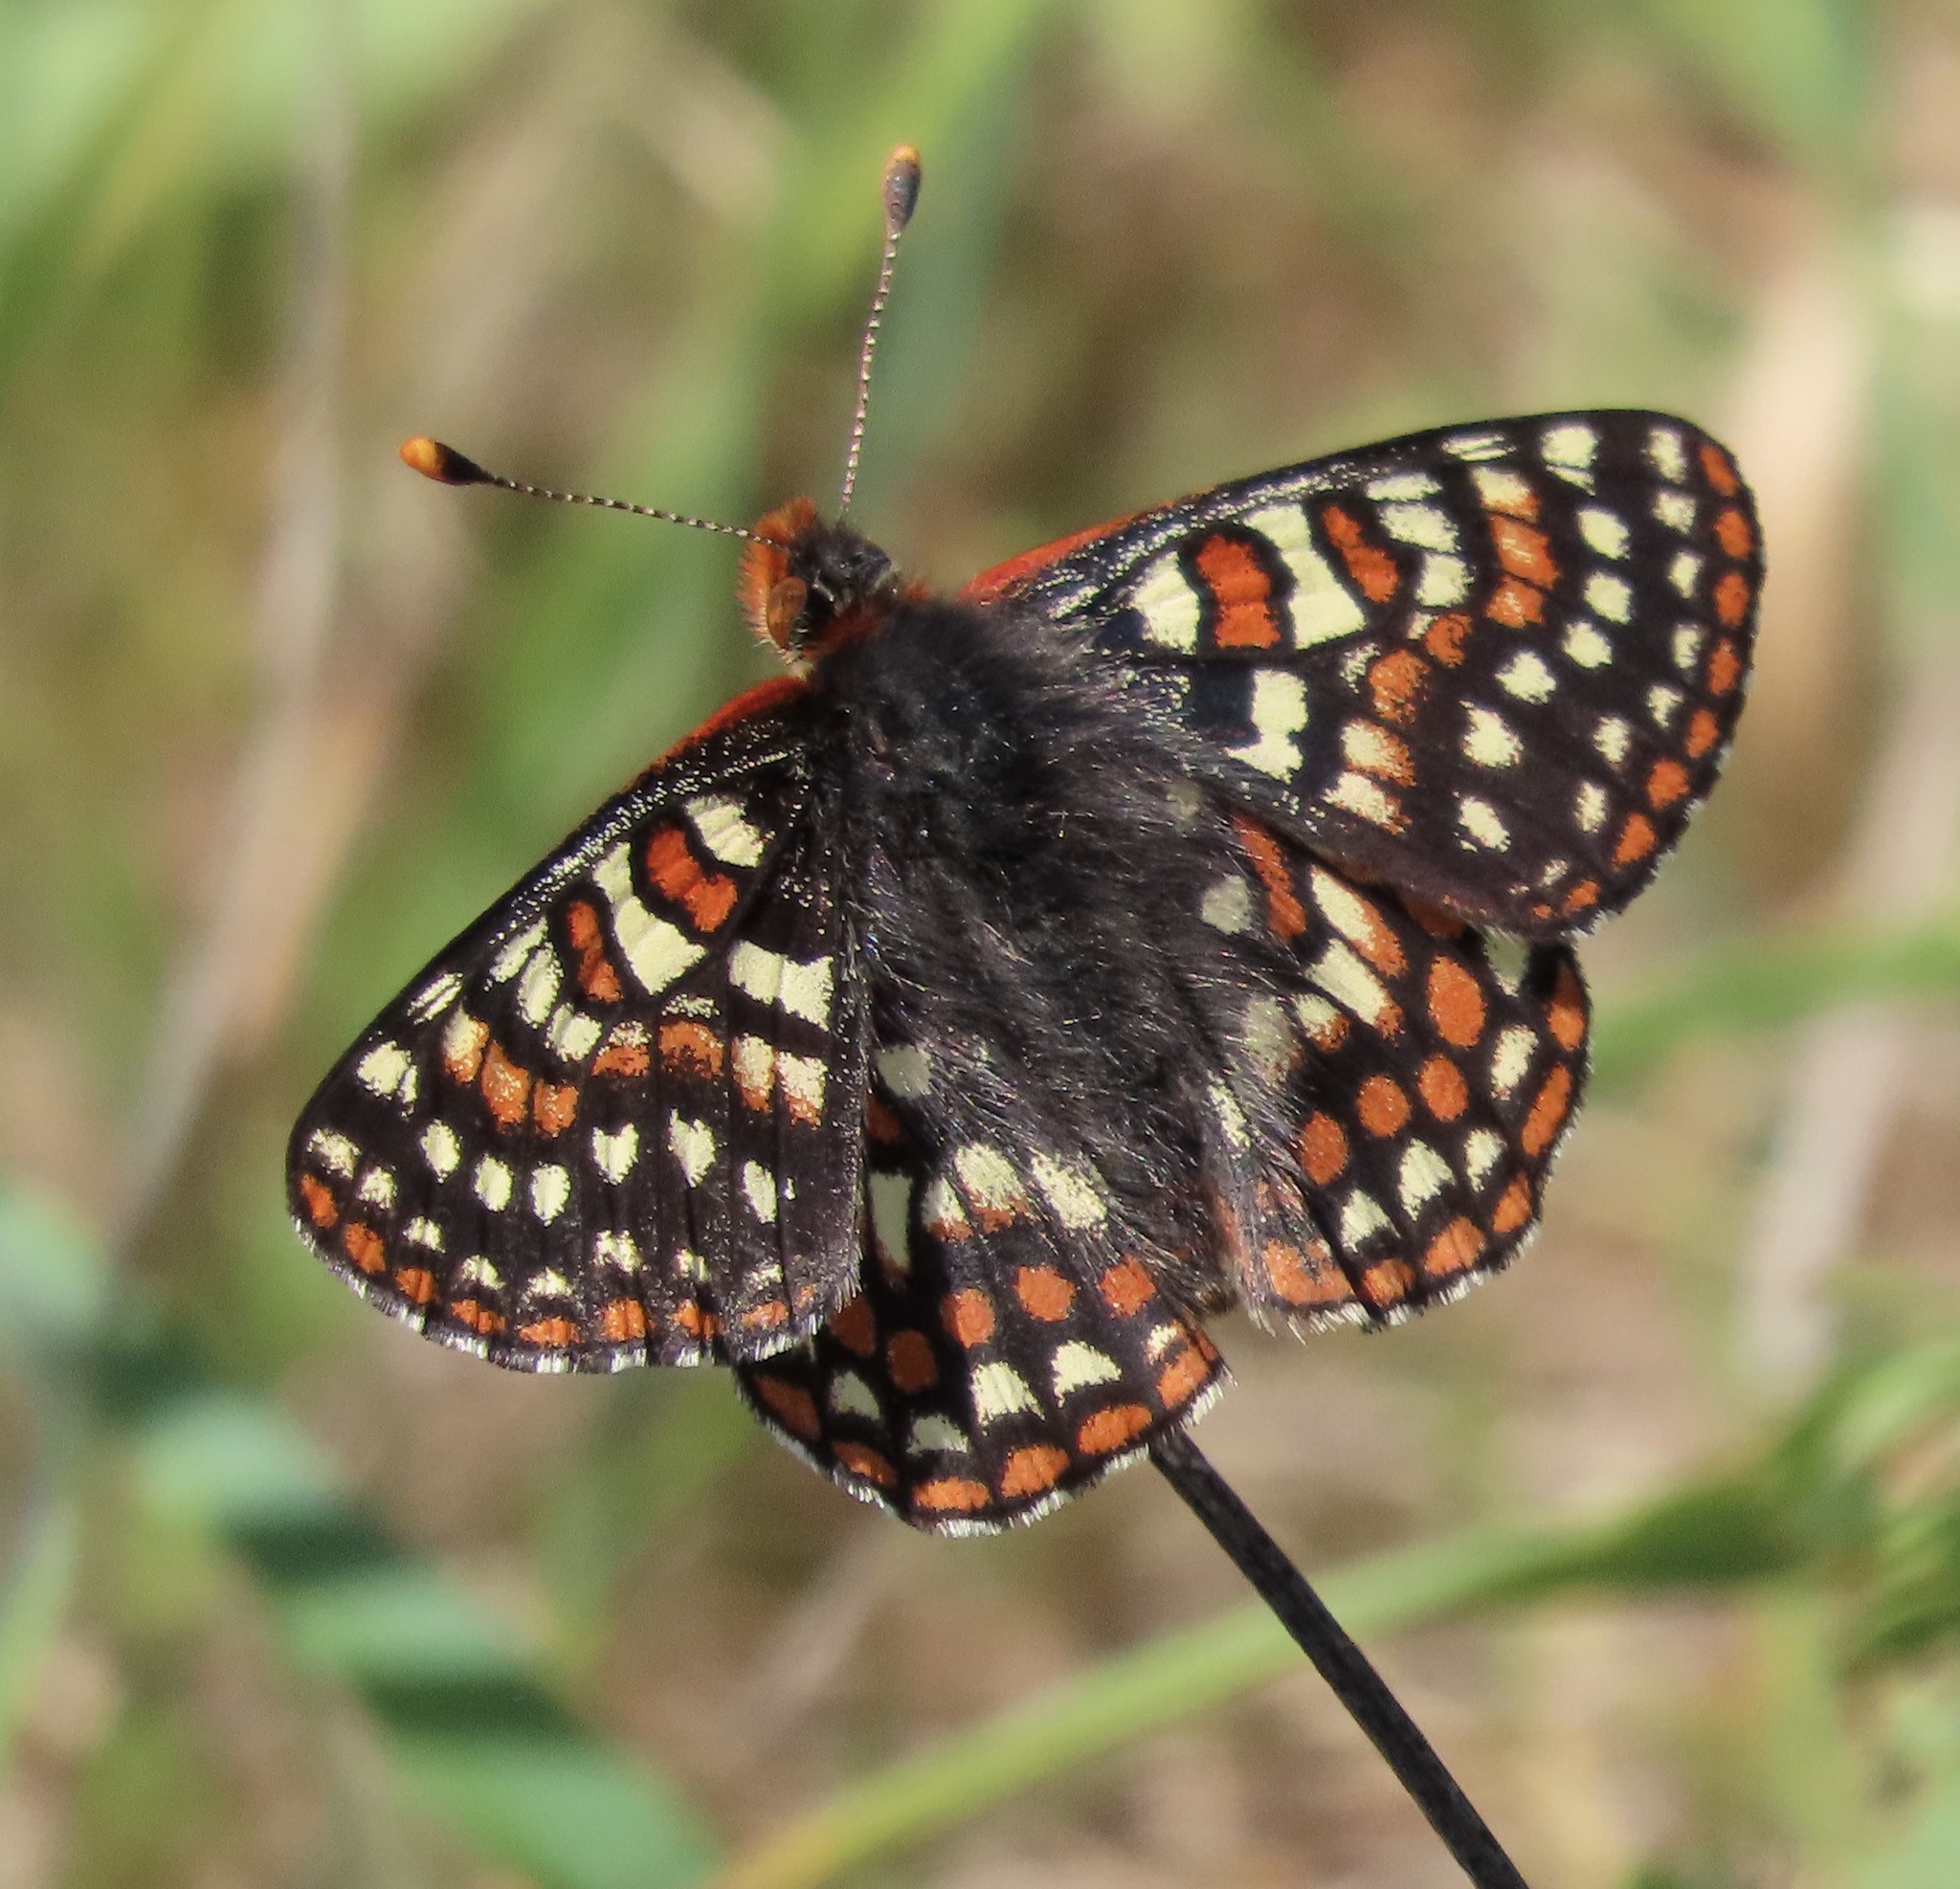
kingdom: Animalia
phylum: Arthropoda
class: Insecta
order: Lepidoptera
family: Nymphalidae
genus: Occidryas
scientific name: Occidryas editha
